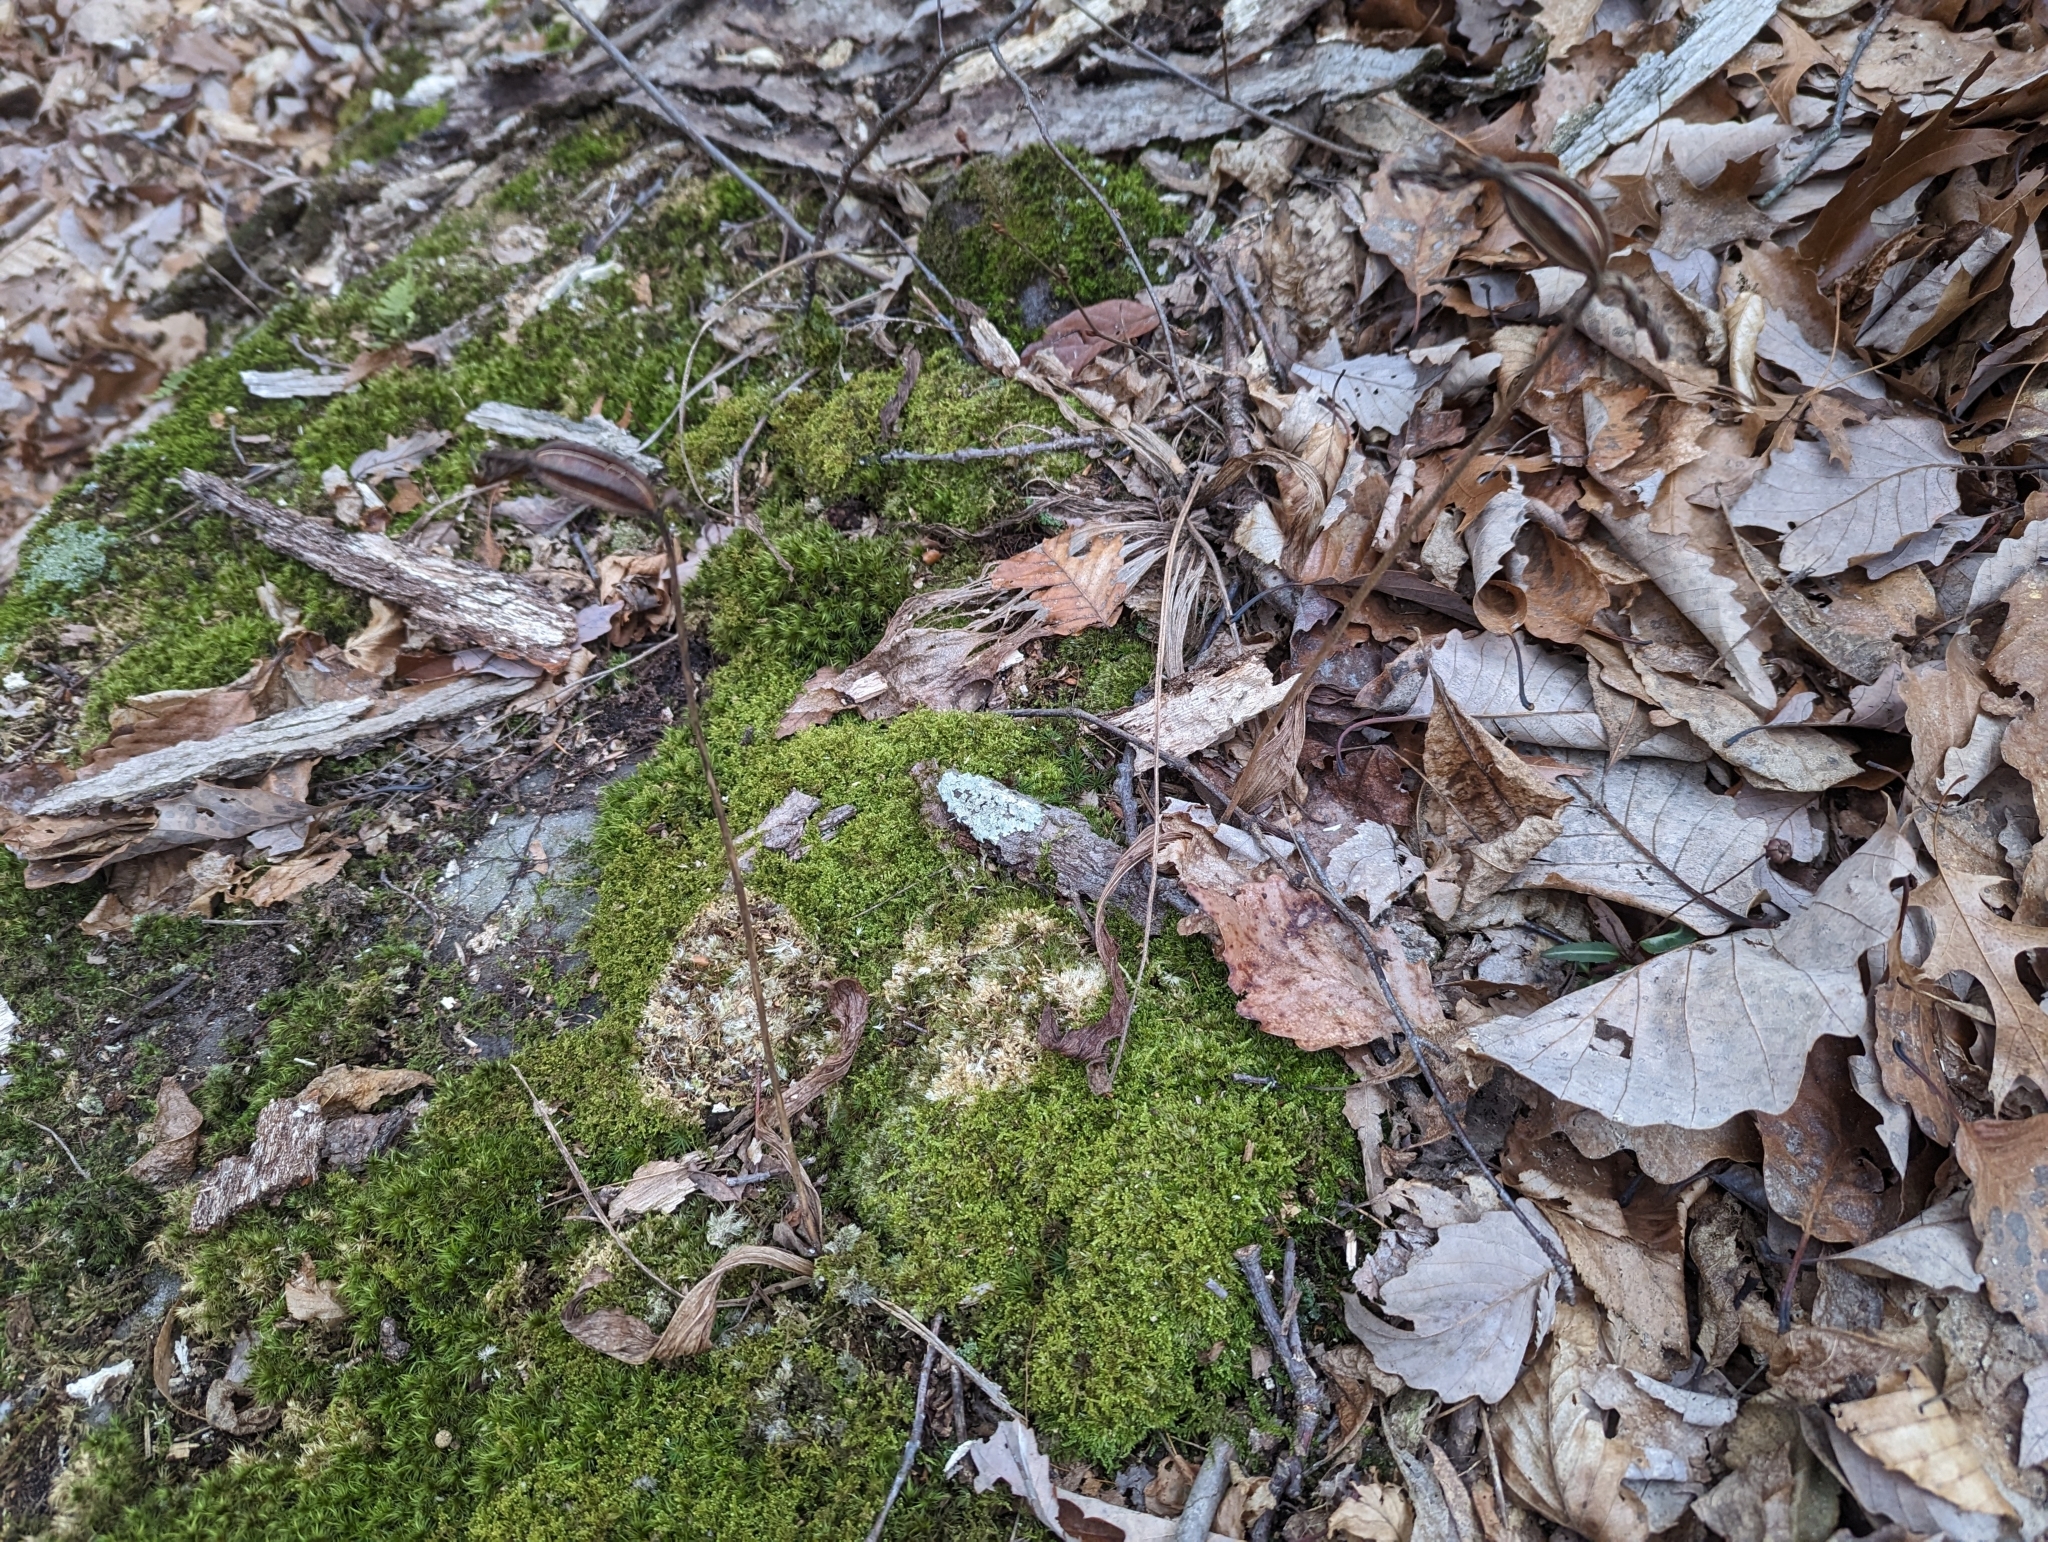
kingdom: Plantae
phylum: Tracheophyta
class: Liliopsida
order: Asparagales
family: Orchidaceae
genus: Cypripedium
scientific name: Cypripedium acaule
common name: Pink lady's-slipper
